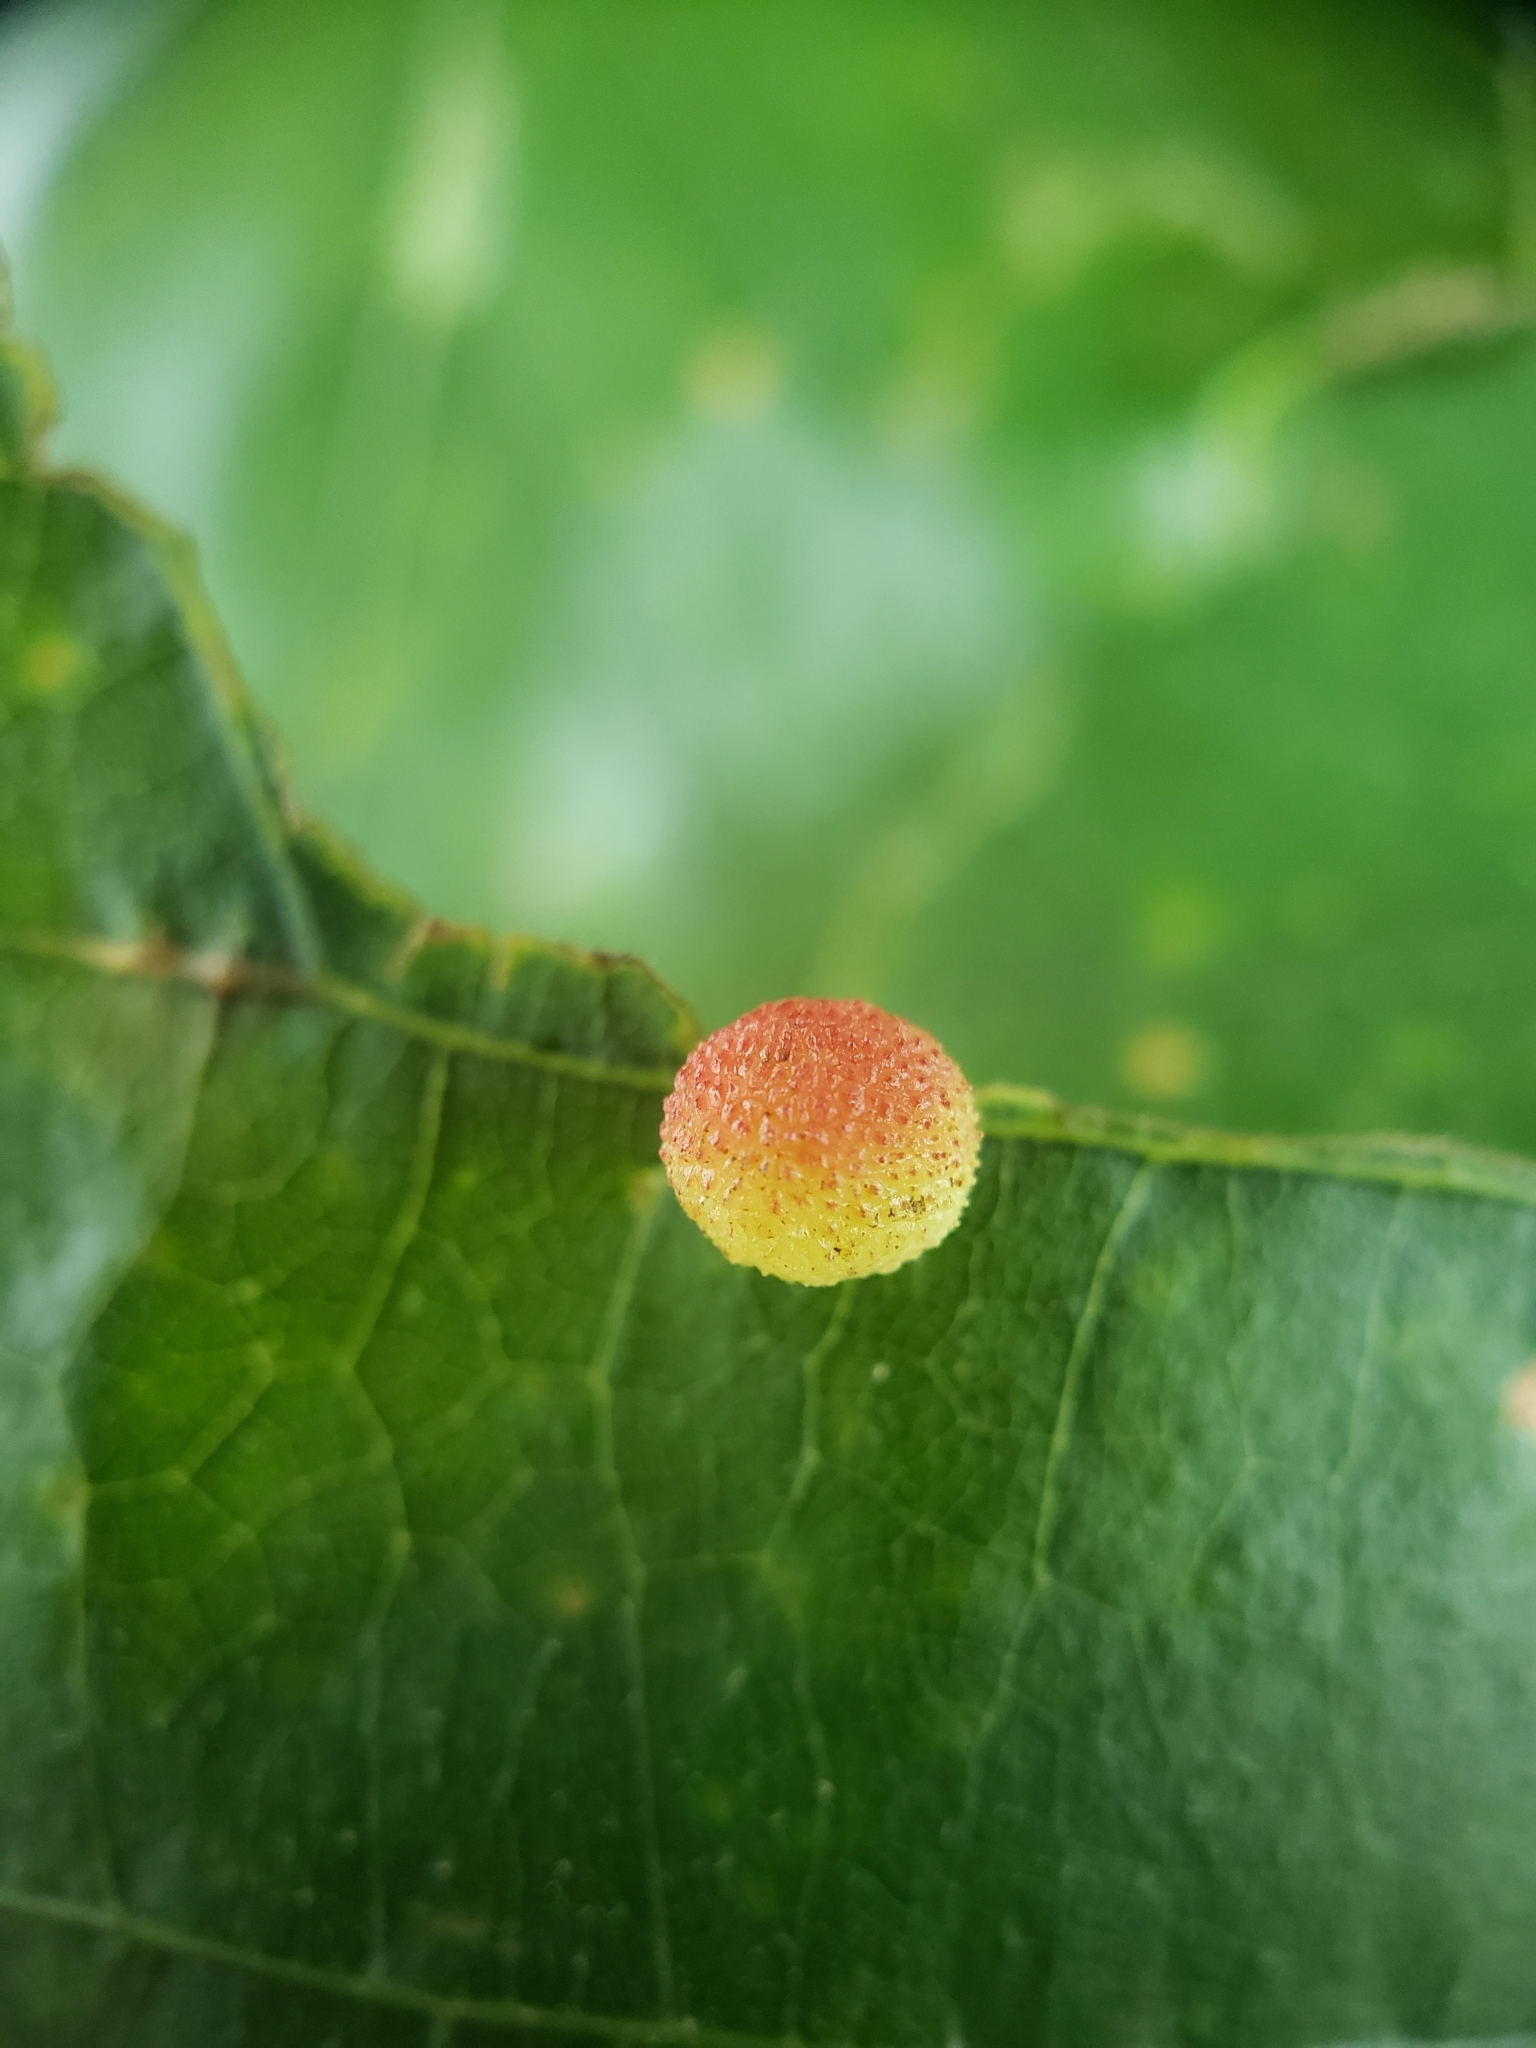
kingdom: Animalia
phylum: Arthropoda
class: Insecta
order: Hymenoptera
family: Cynipidae
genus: Acraspis
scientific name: Acraspis quercushirta
